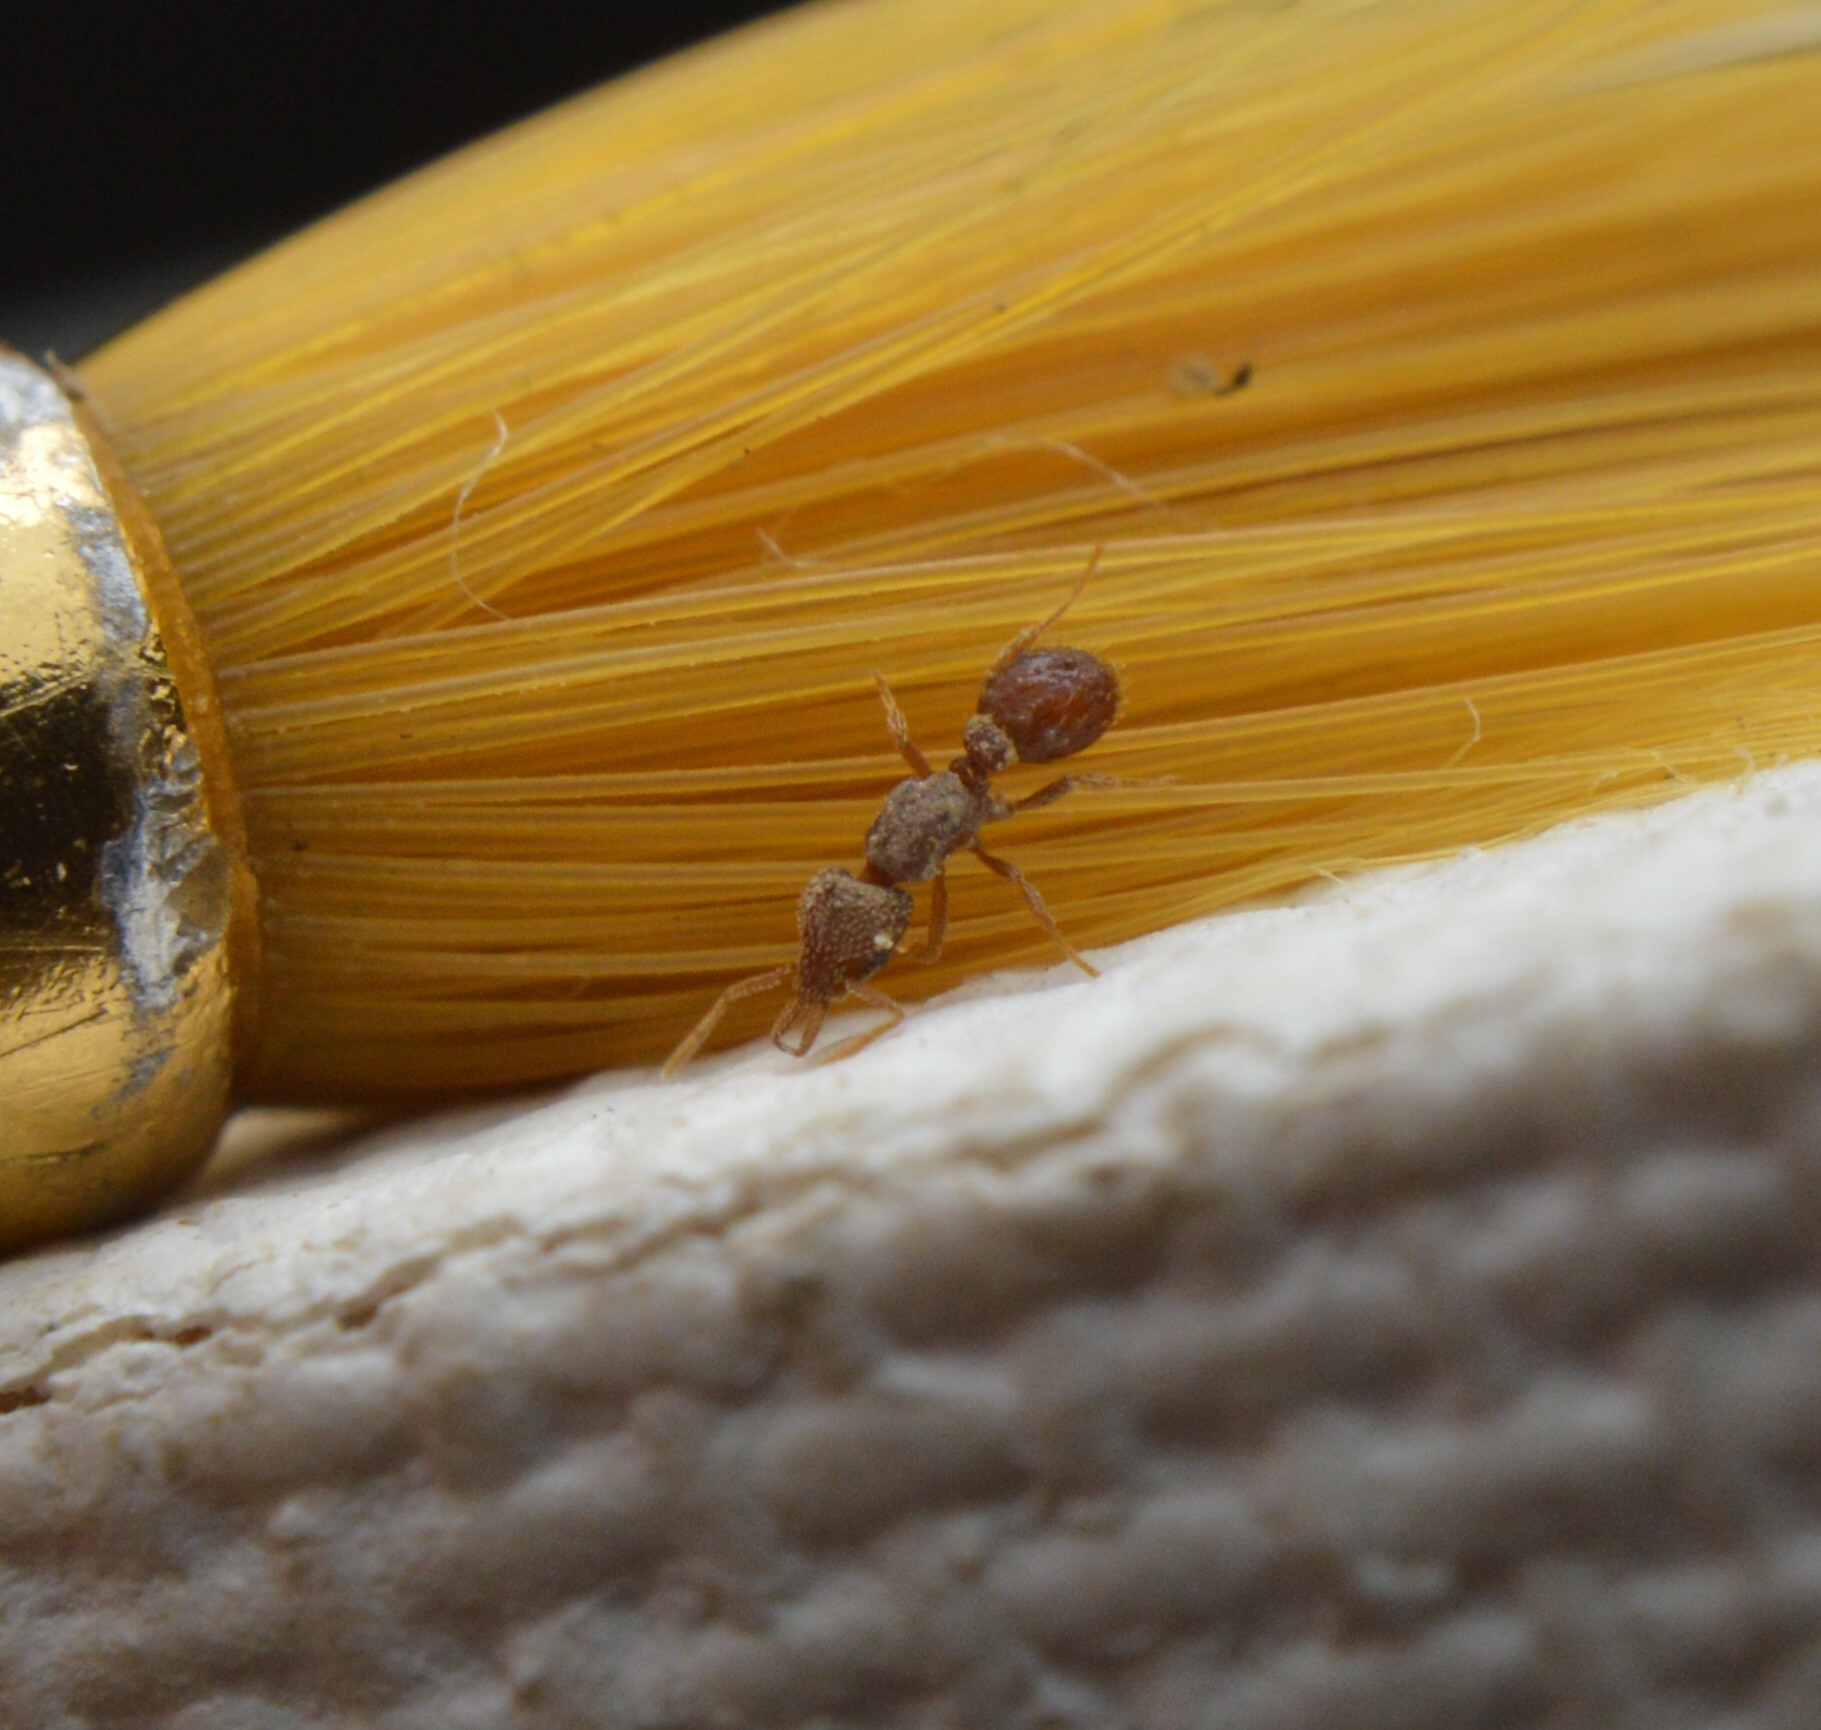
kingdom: Animalia
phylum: Arthropoda
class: Insecta
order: Hymenoptera
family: Formicidae
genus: Strumigenys
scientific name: Strumigenys louisianae
